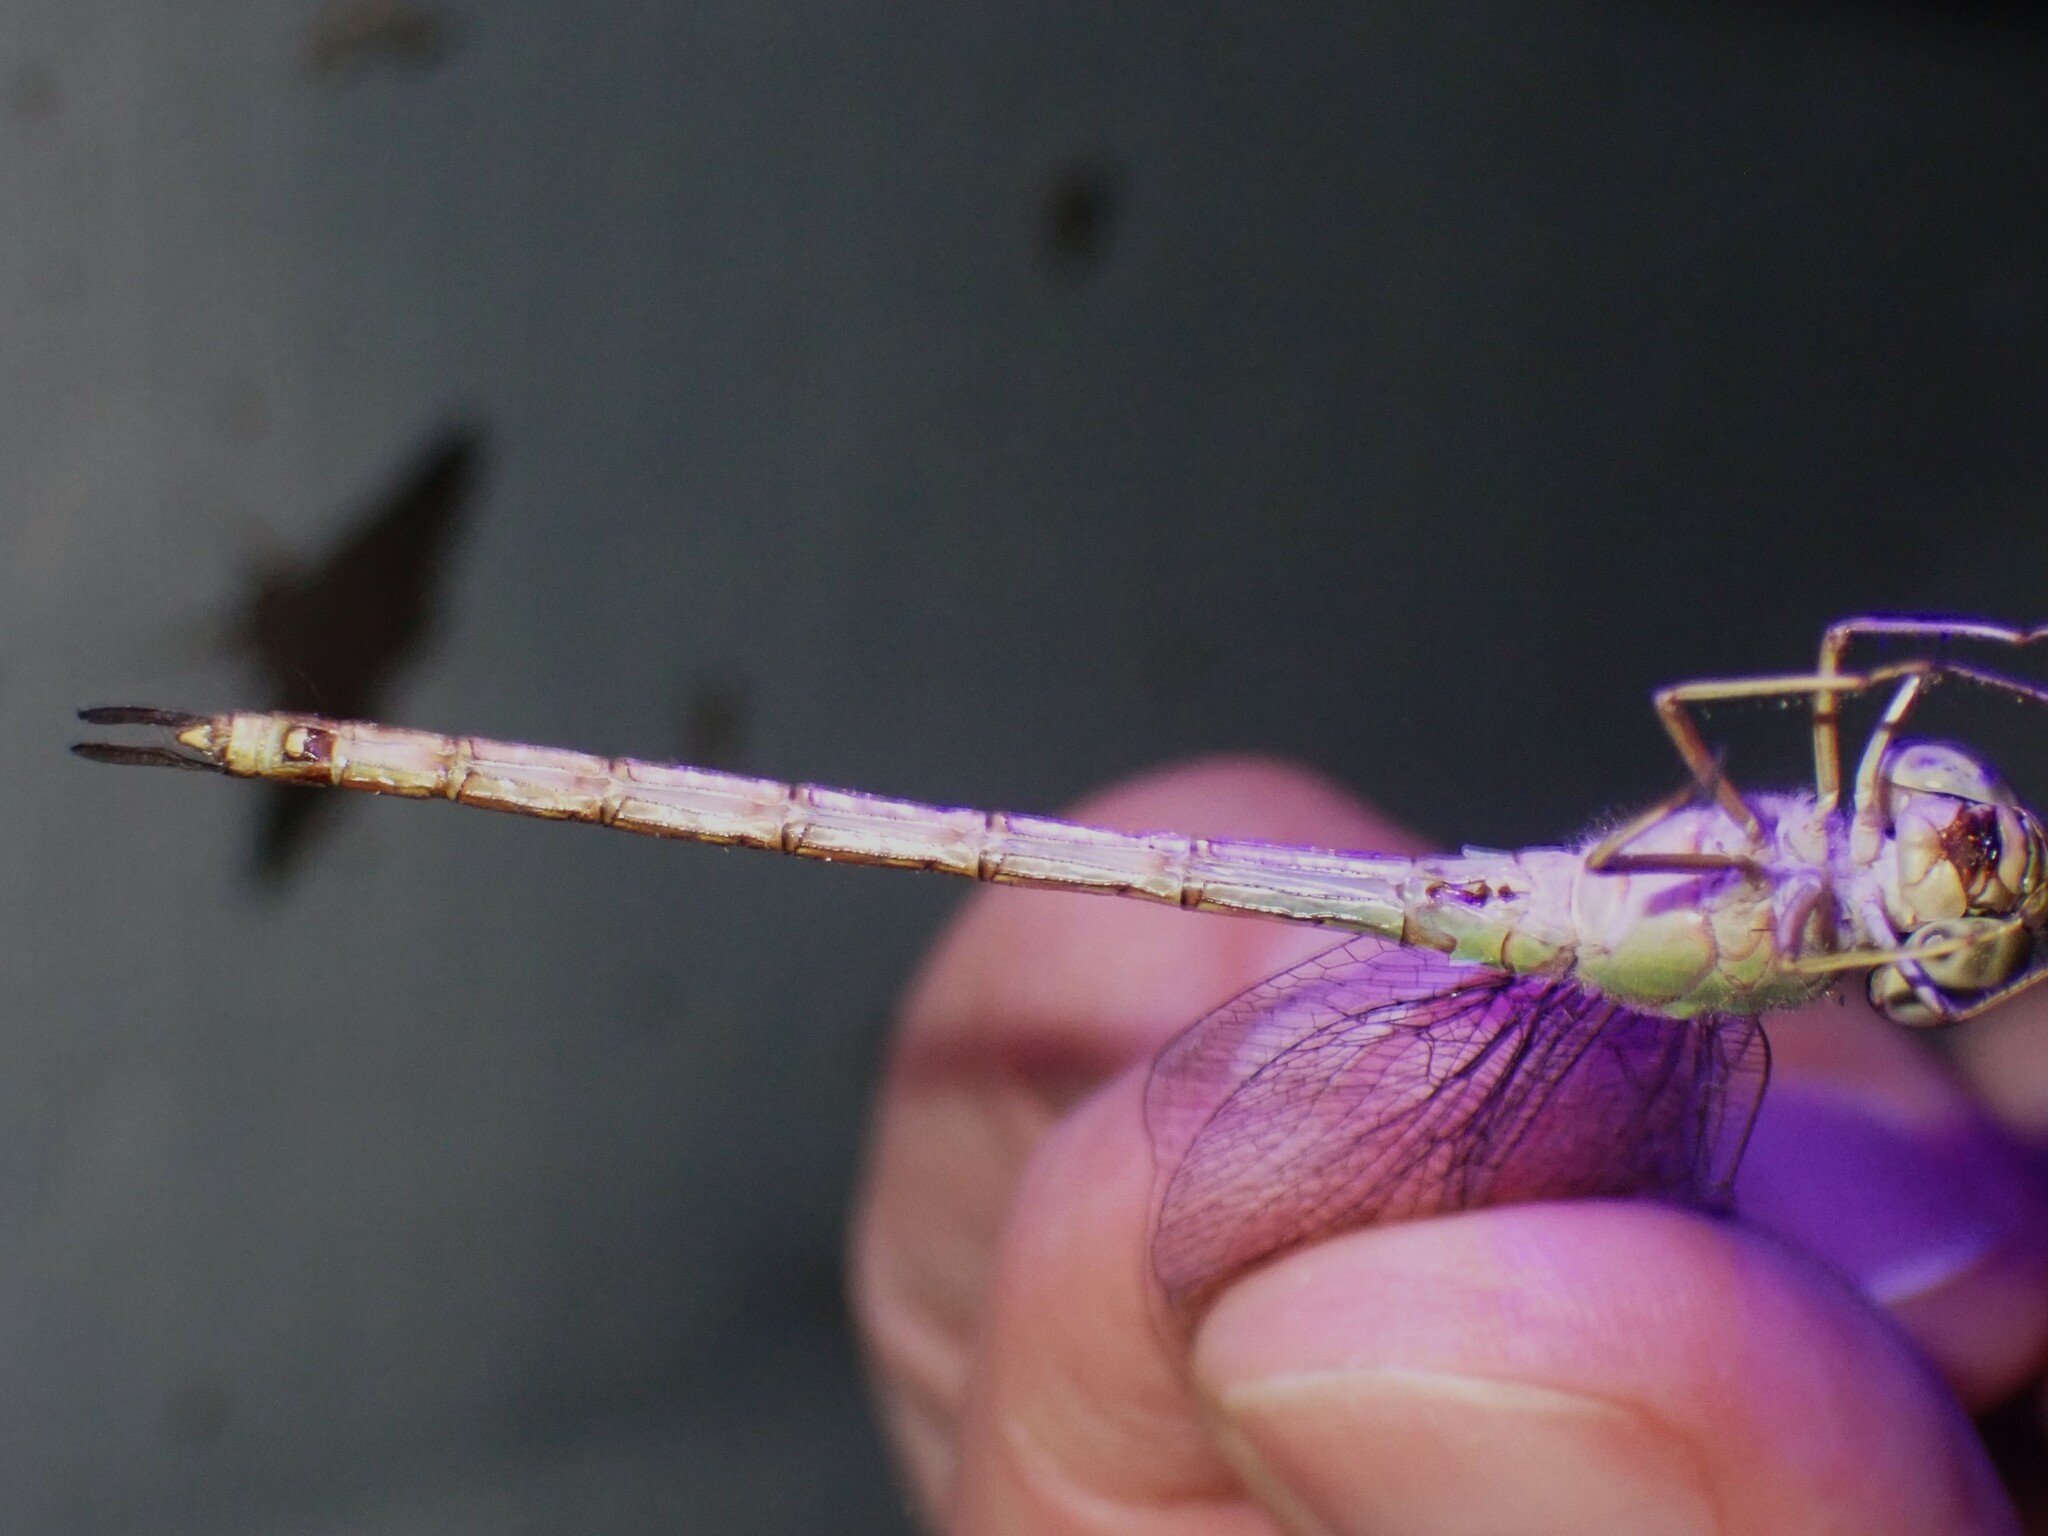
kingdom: Animalia
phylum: Arthropoda
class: Insecta
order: Odonata
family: Aeshnidae
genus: Triacanthagyna
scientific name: Triacanthagyna septima
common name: Pale-green darner
